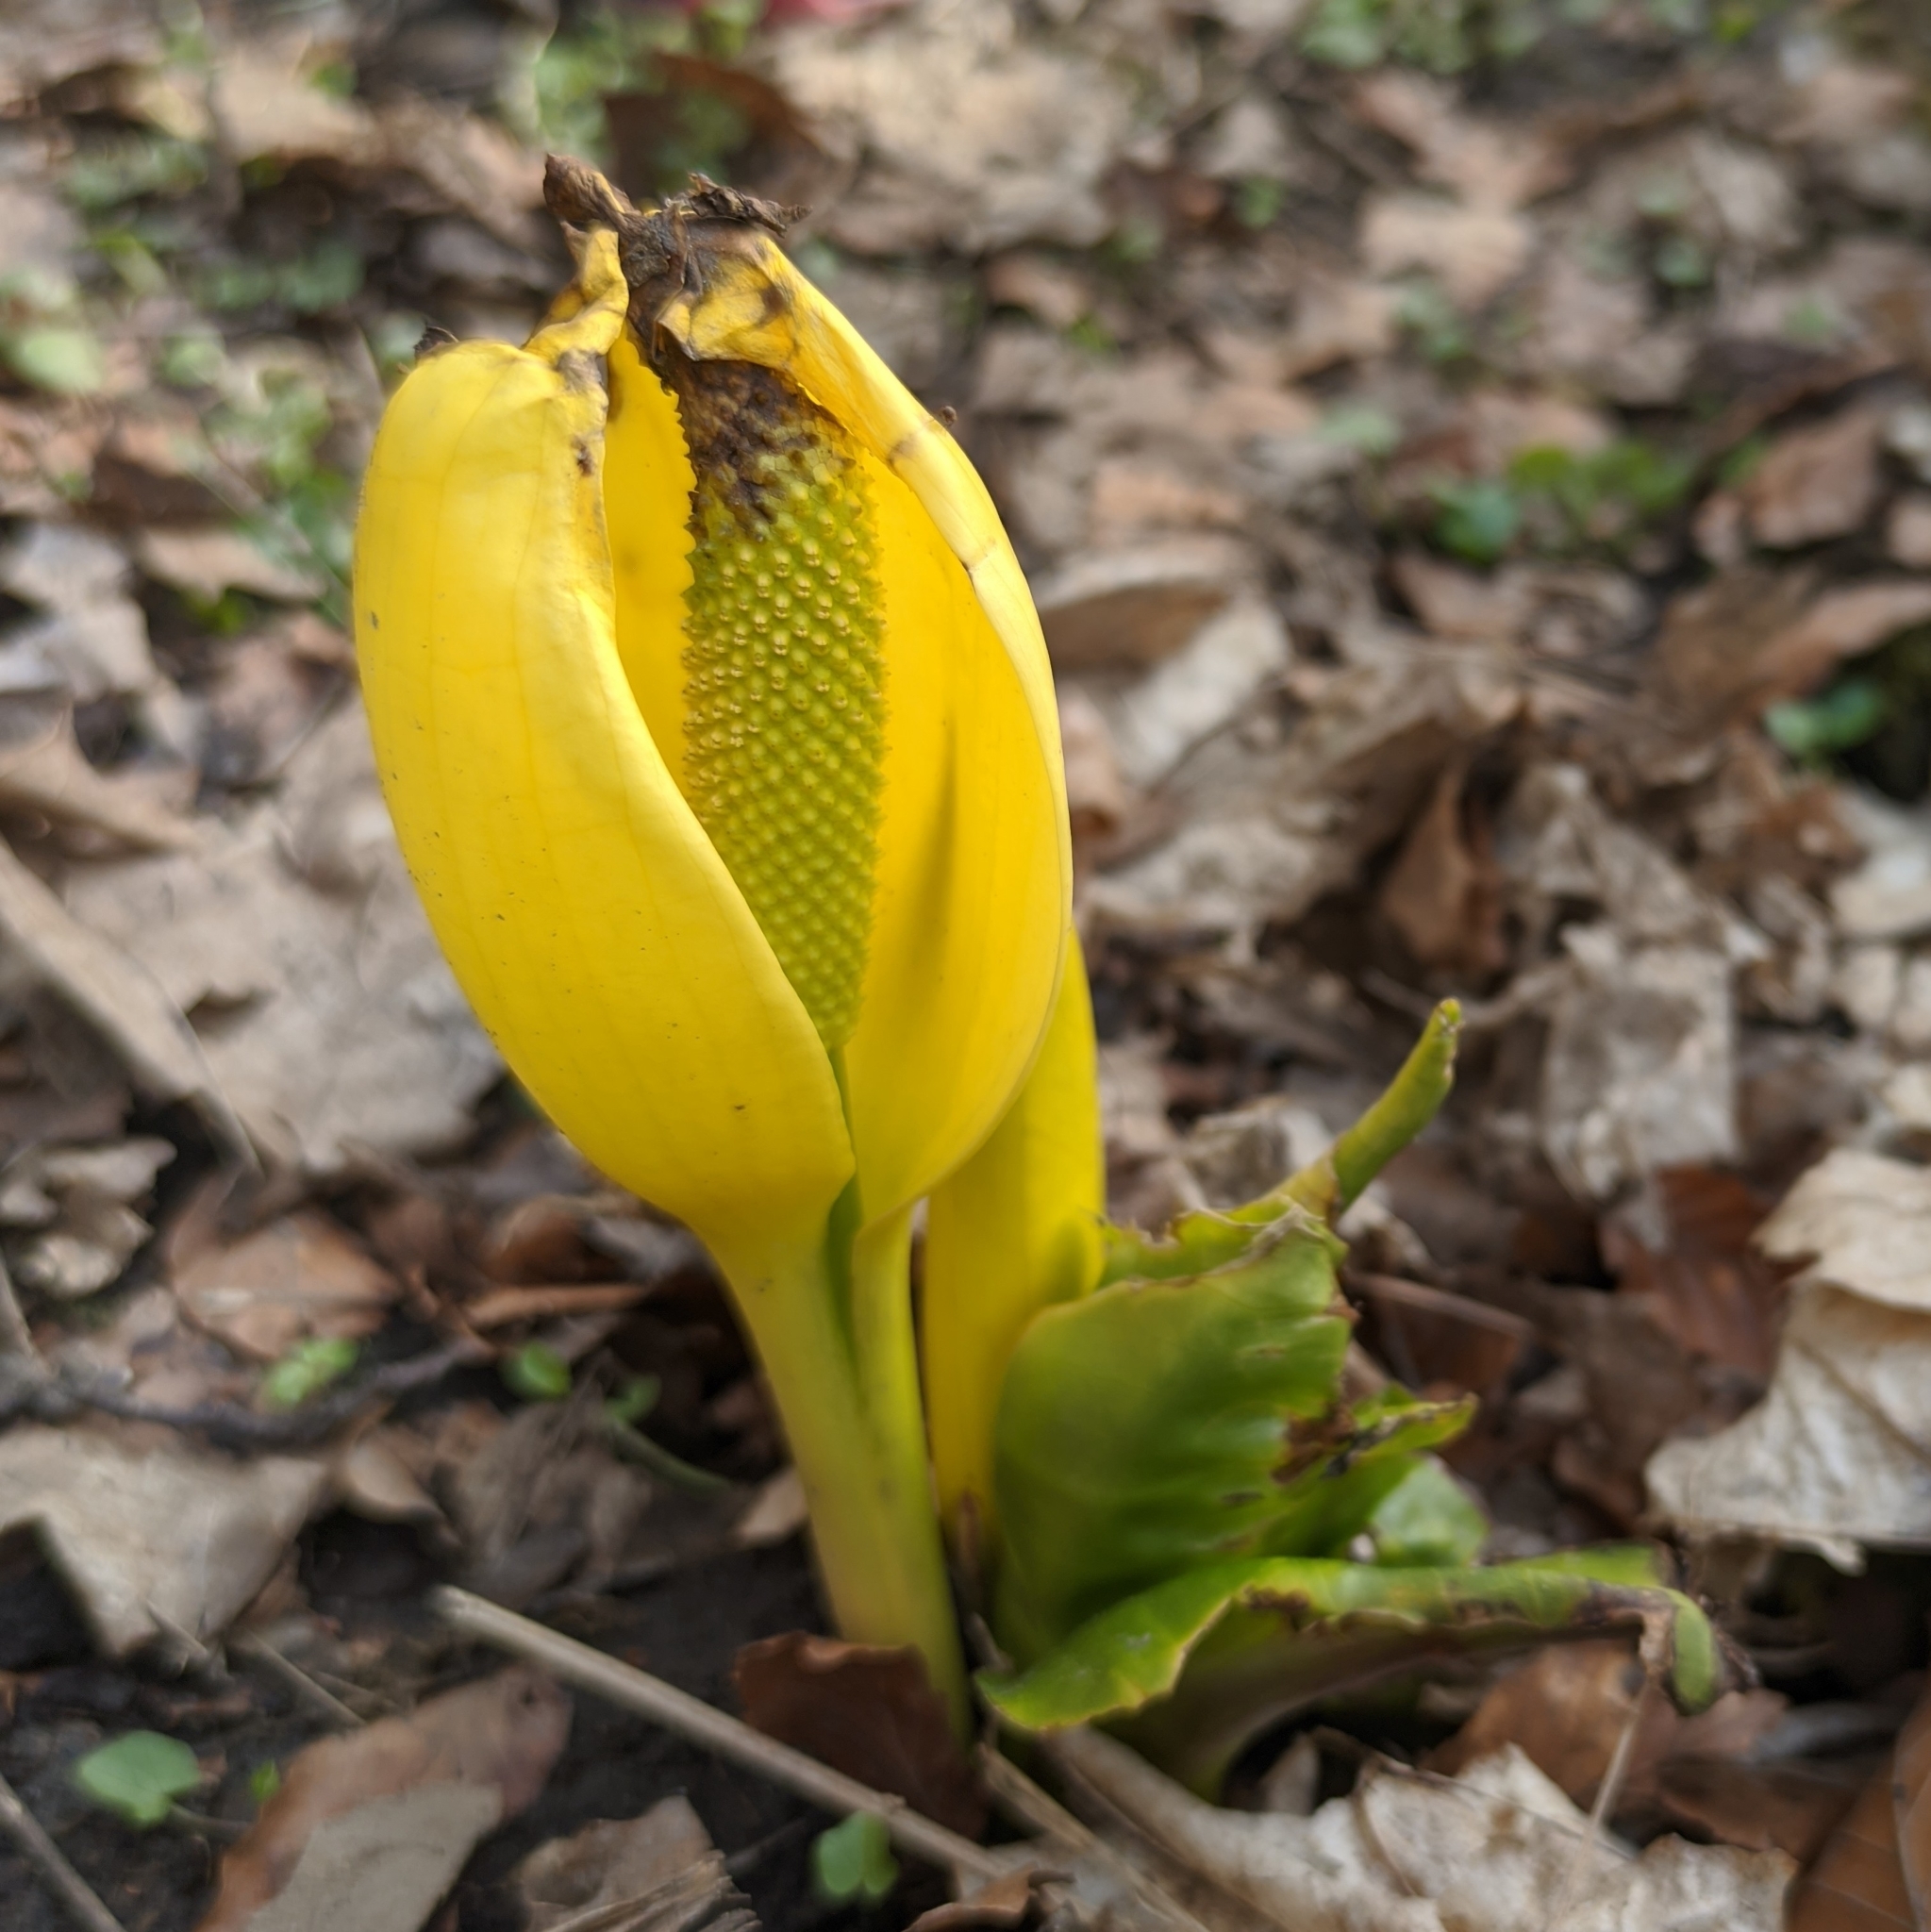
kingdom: Plantae
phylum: Tracheophyta
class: Liliopsida
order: Alismatales
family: Araceae
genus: Lysichiton
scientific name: Lysichiton americanus
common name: American skunk cabbage
